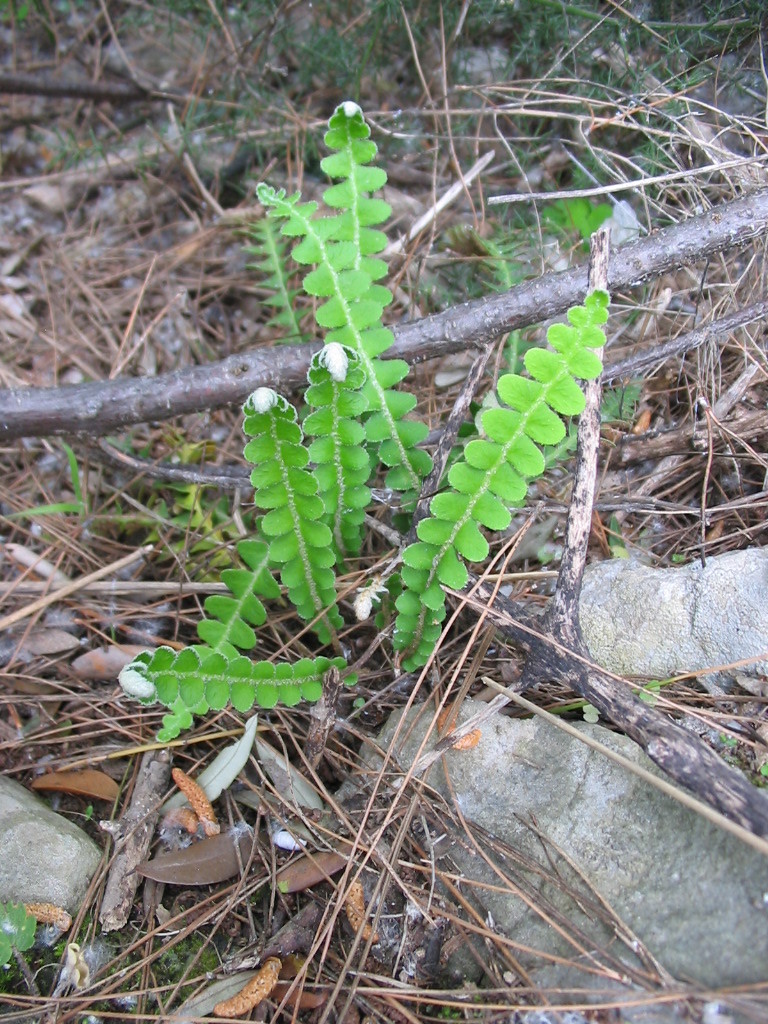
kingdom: Plantae
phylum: Tracheophyta
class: Polypodiopsida
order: Polypodiales
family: Aspleniaceae
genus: Asplenium
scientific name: Asplenium ceterach
